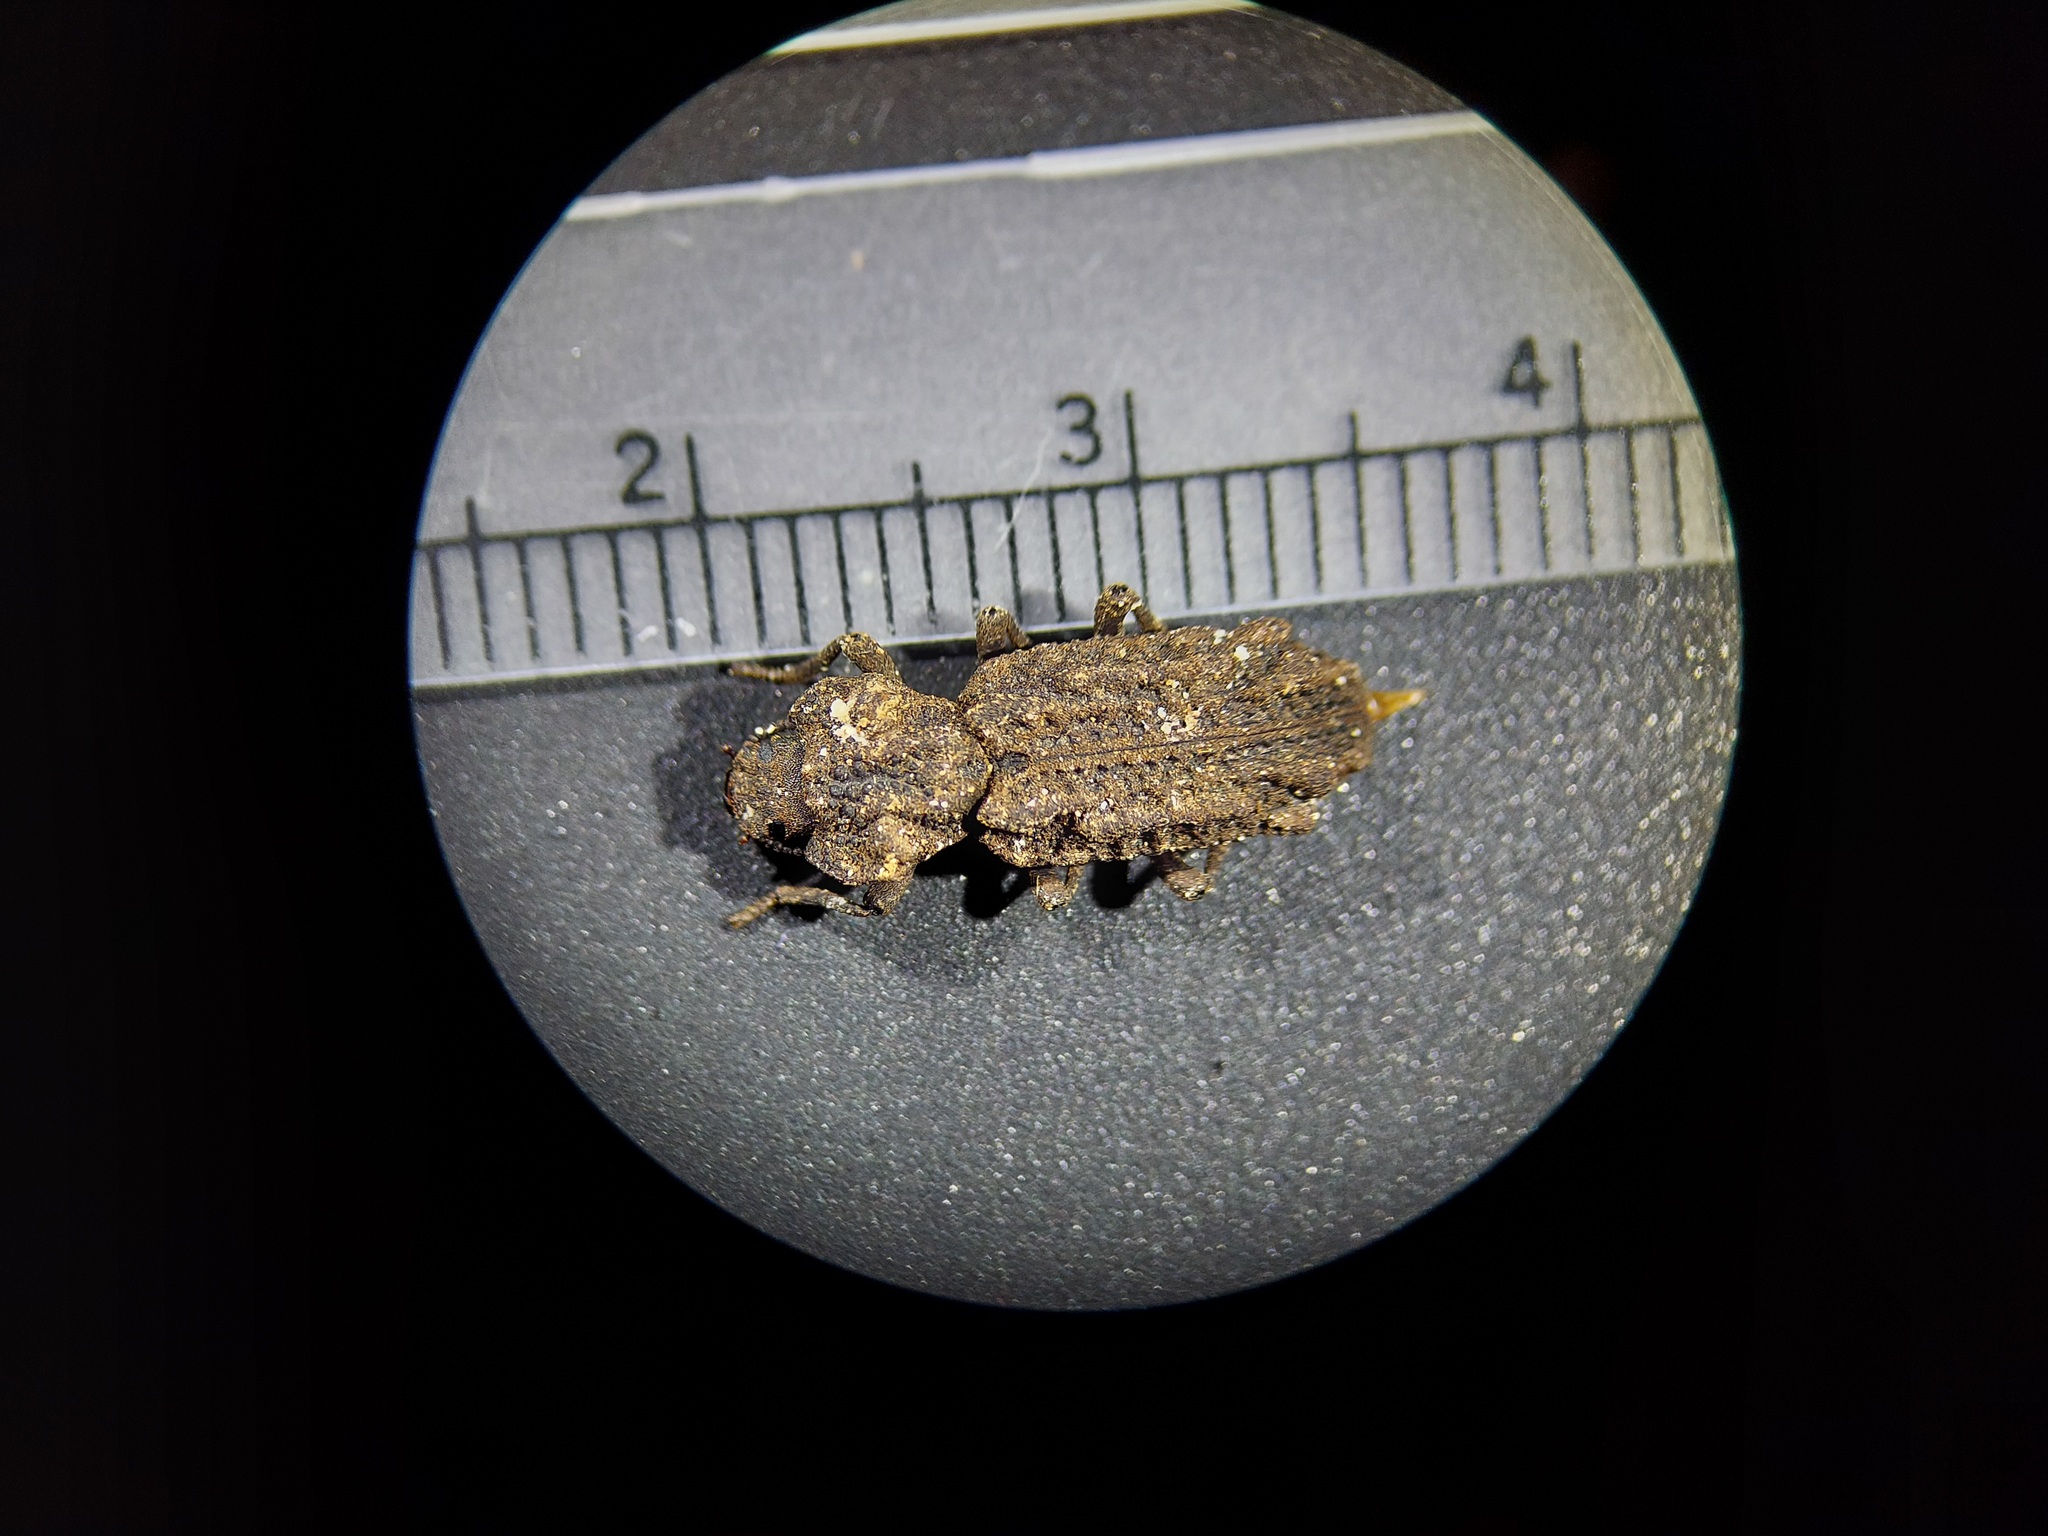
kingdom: Animalia
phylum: Arthropoda
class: Insecta
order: Coleoptera
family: Zopheridae
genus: Phellopsis
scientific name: Phellopsis obcordata
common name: Eastern ironclad beetle
